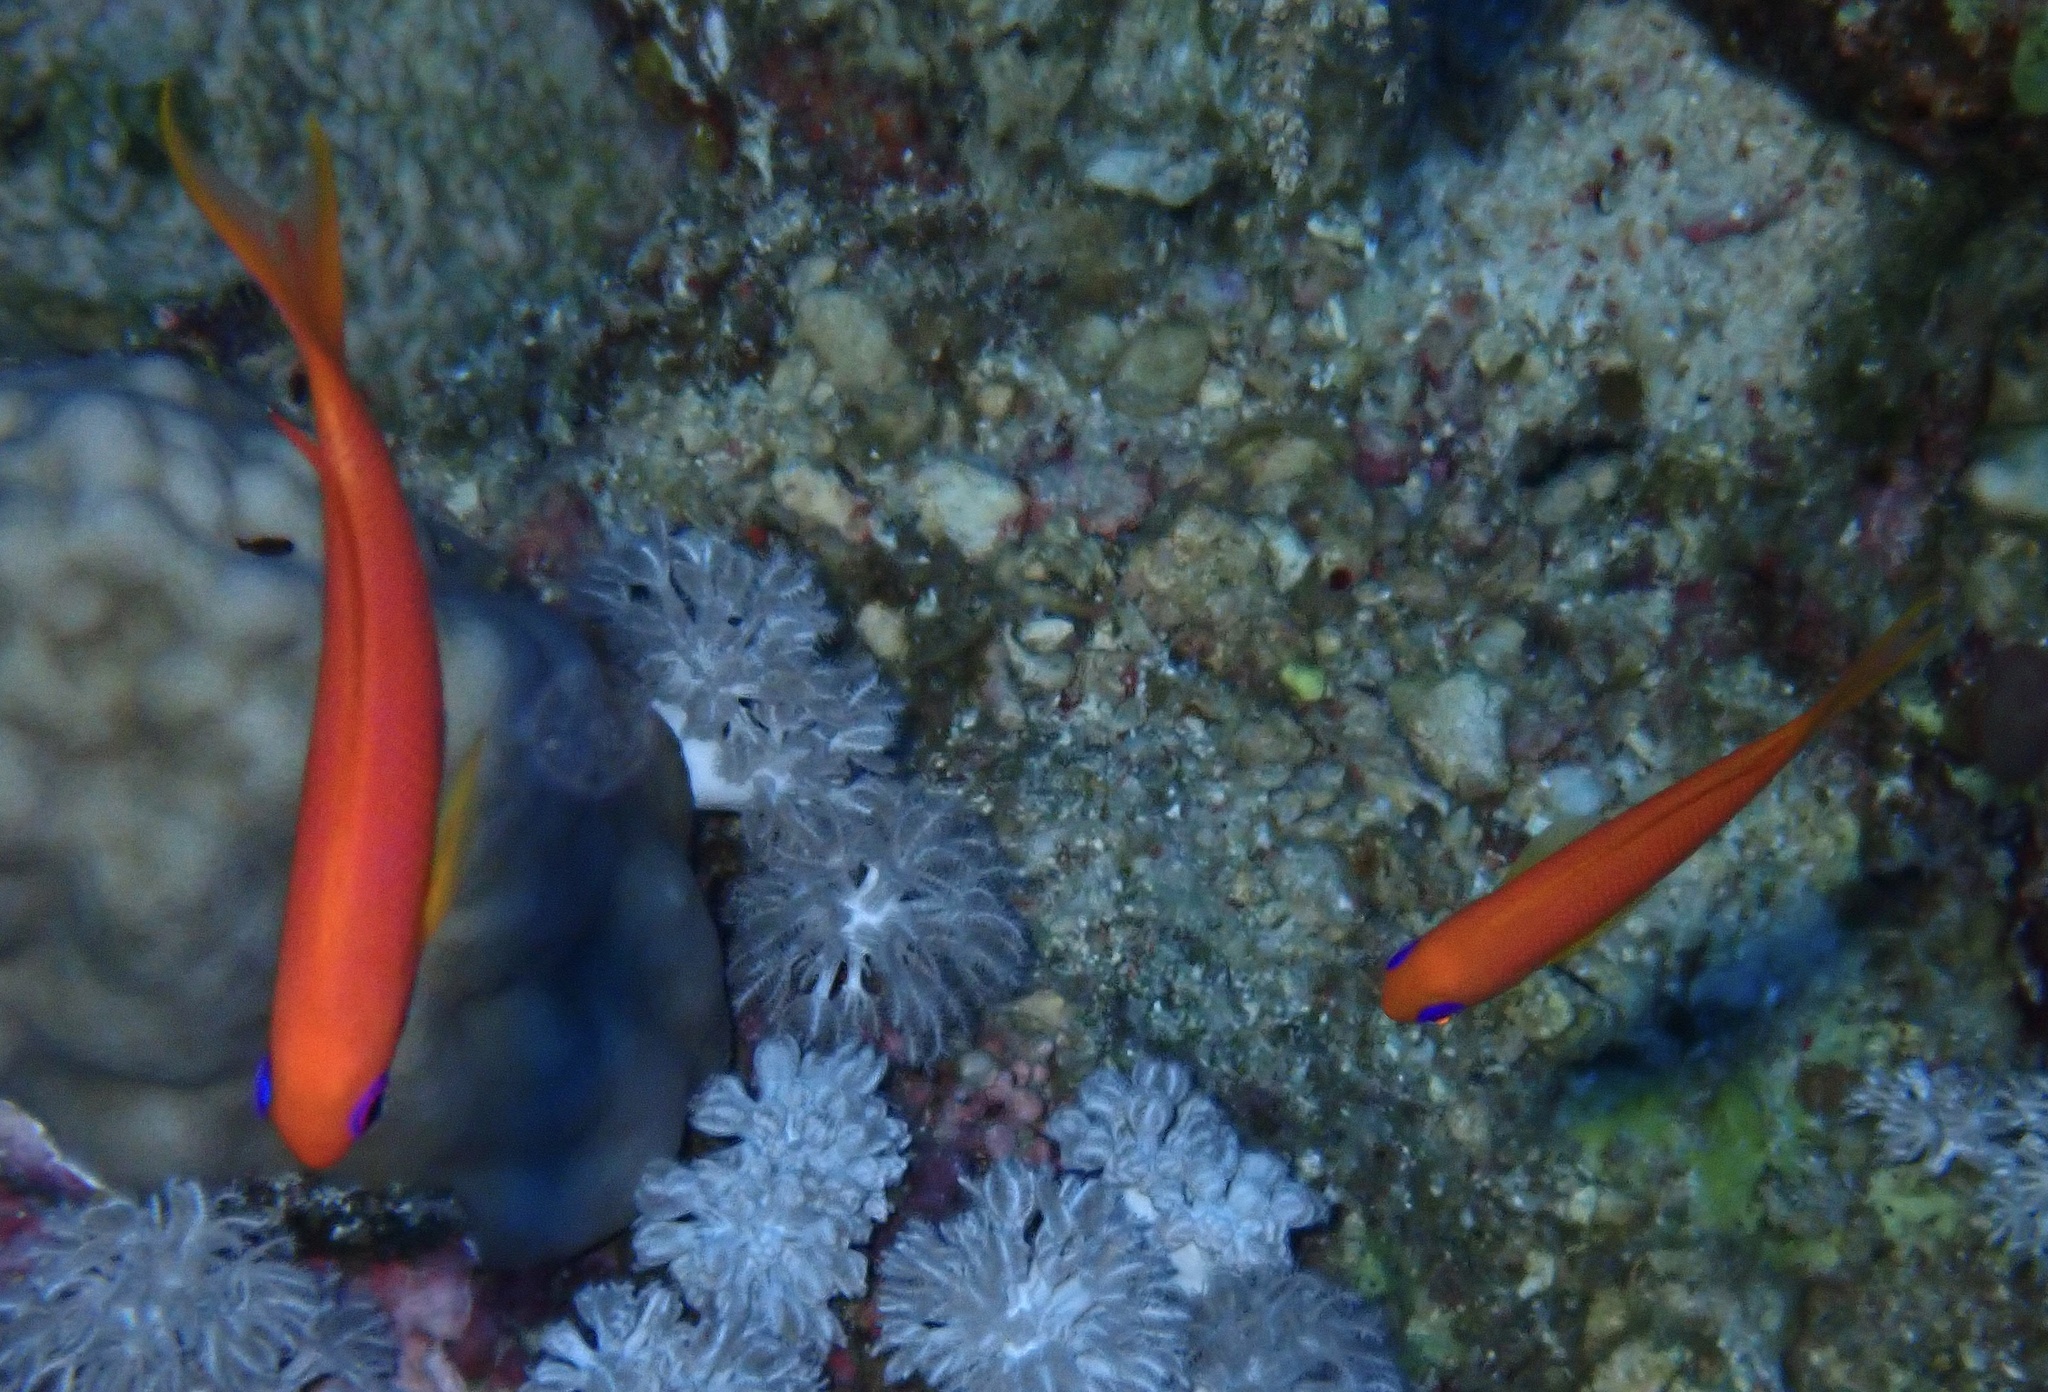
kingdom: Animalia
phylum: Chordata
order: Perciformes
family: Serranidae
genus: Pseudanthias
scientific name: Pseudanthias squamipinnis
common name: Scalefin anthias
